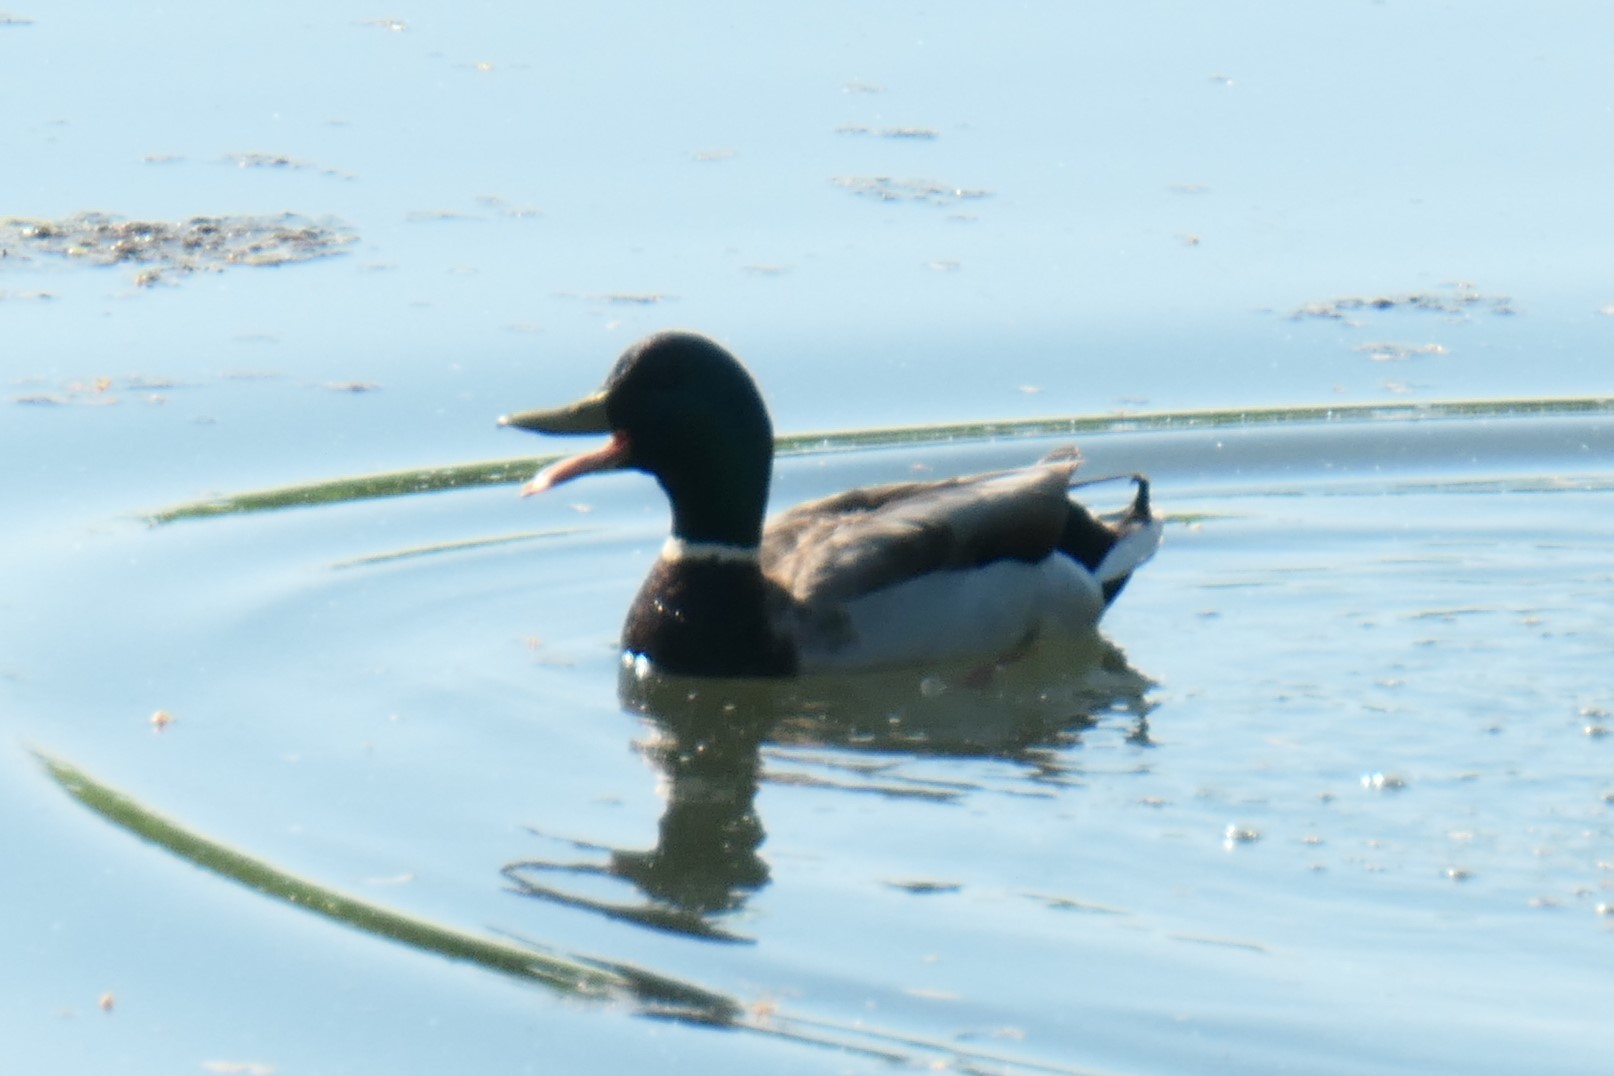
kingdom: Animalia
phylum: Chordata
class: Aves
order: Anseriformes
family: Anatidae
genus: Anas
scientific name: Anas platyrhynchos
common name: Mallard
